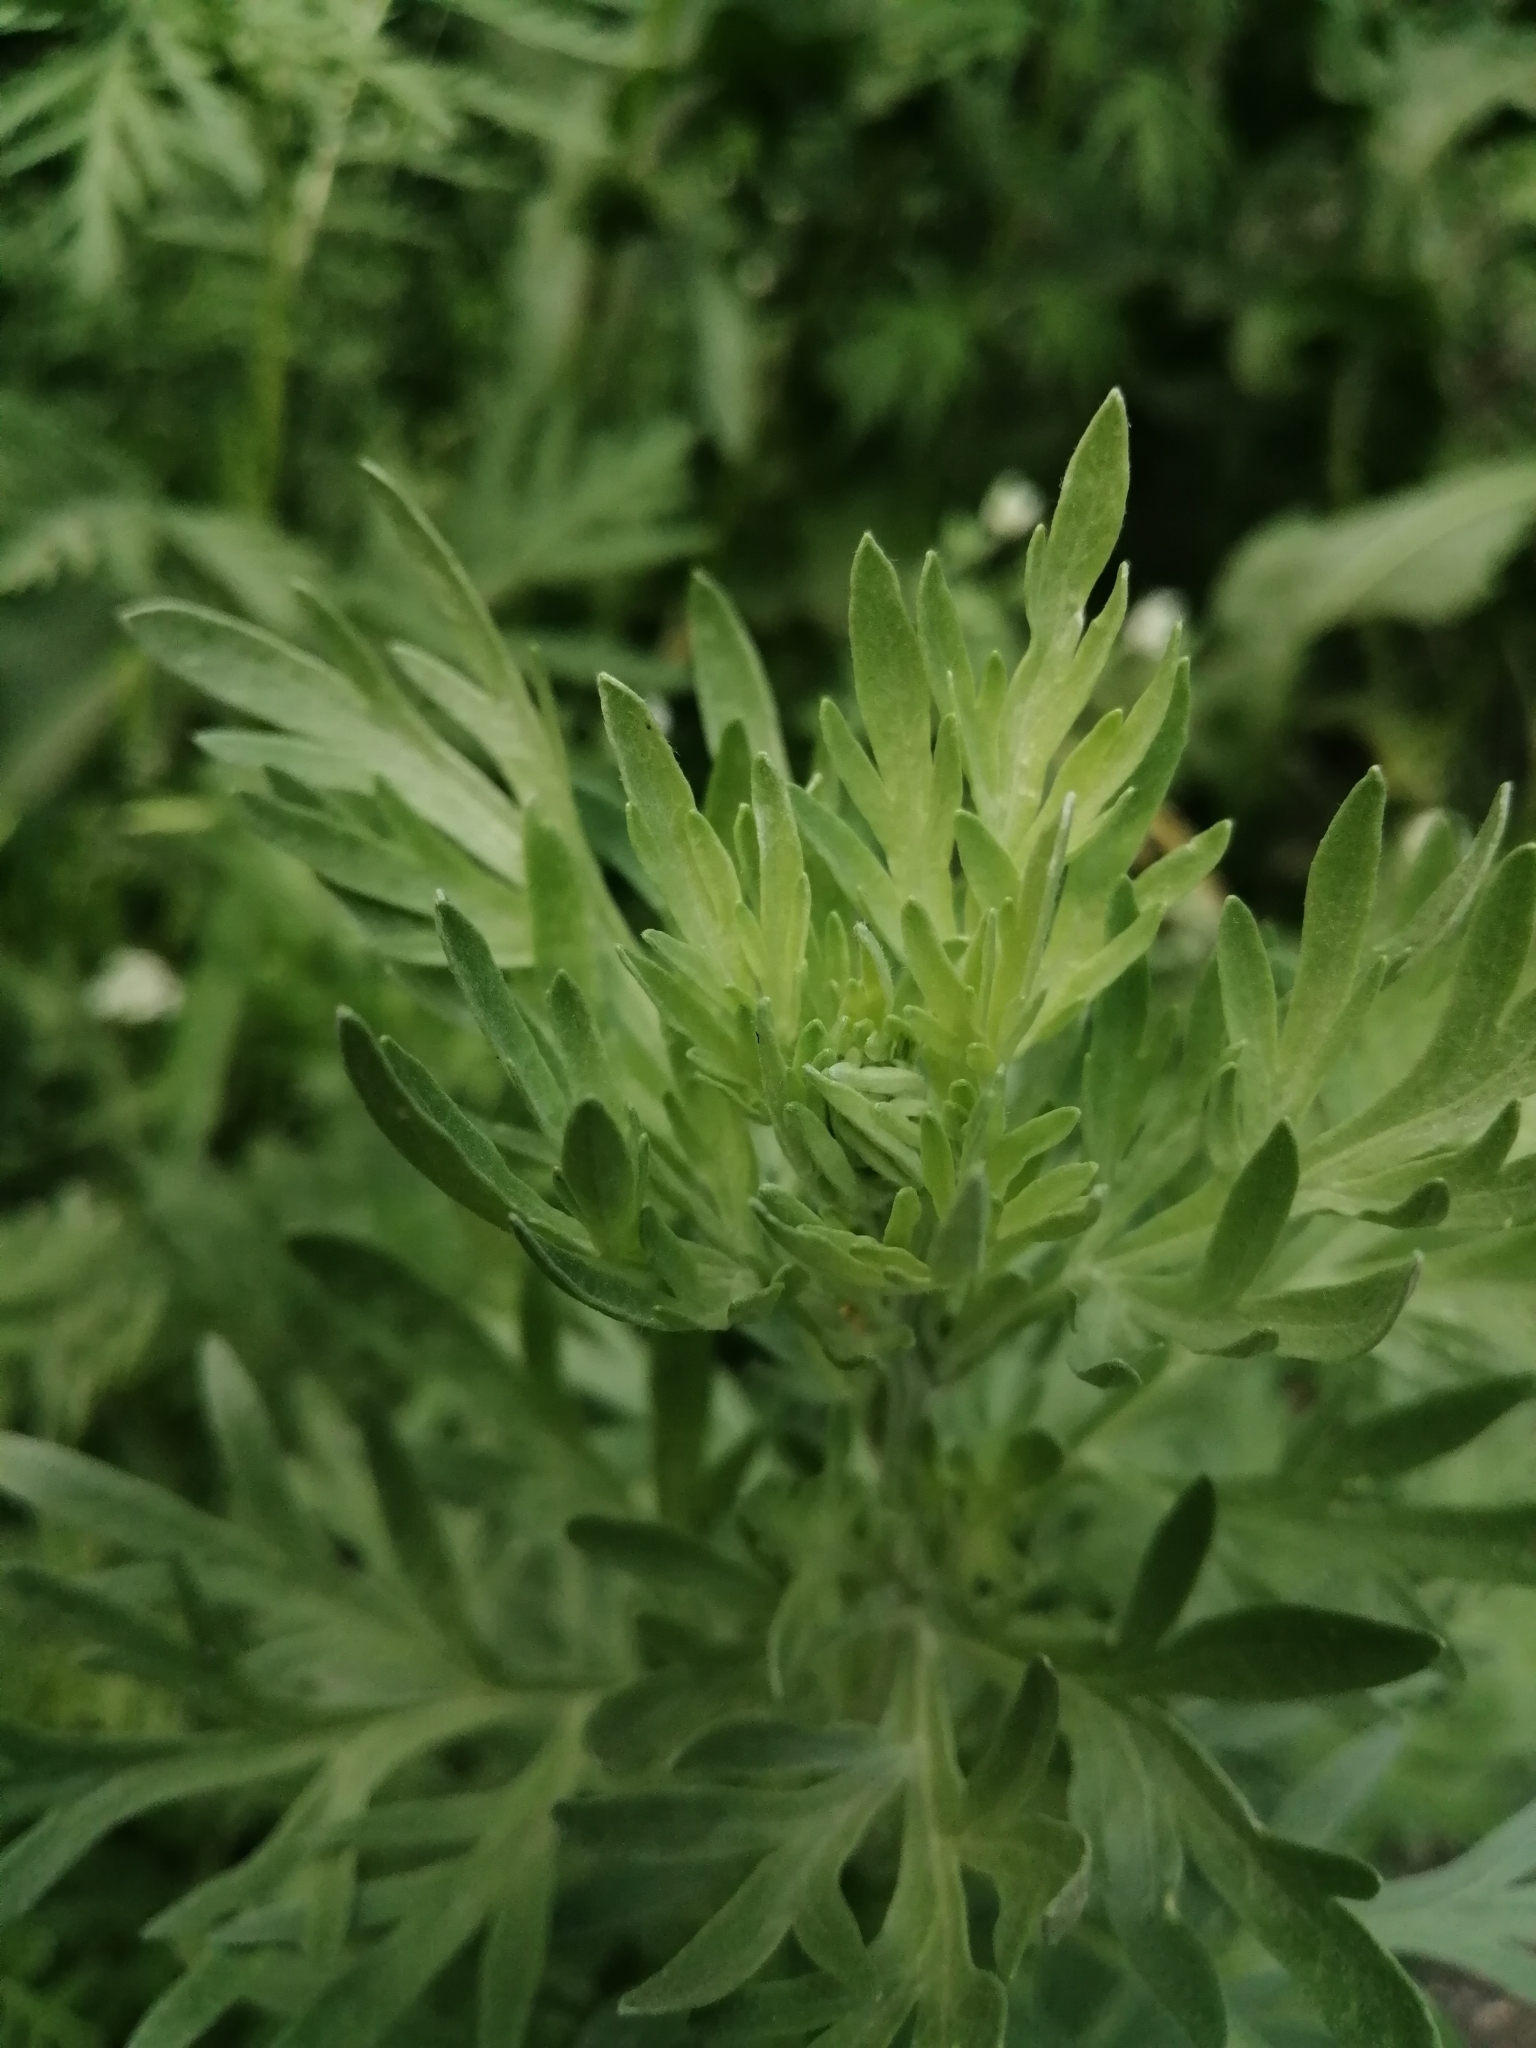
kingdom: Plantae
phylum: Tracheophyta
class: Magnoliopsida
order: Asterales
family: Asteraceae
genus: Artemisia
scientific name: Artemisia absinthium
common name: Wormwood
